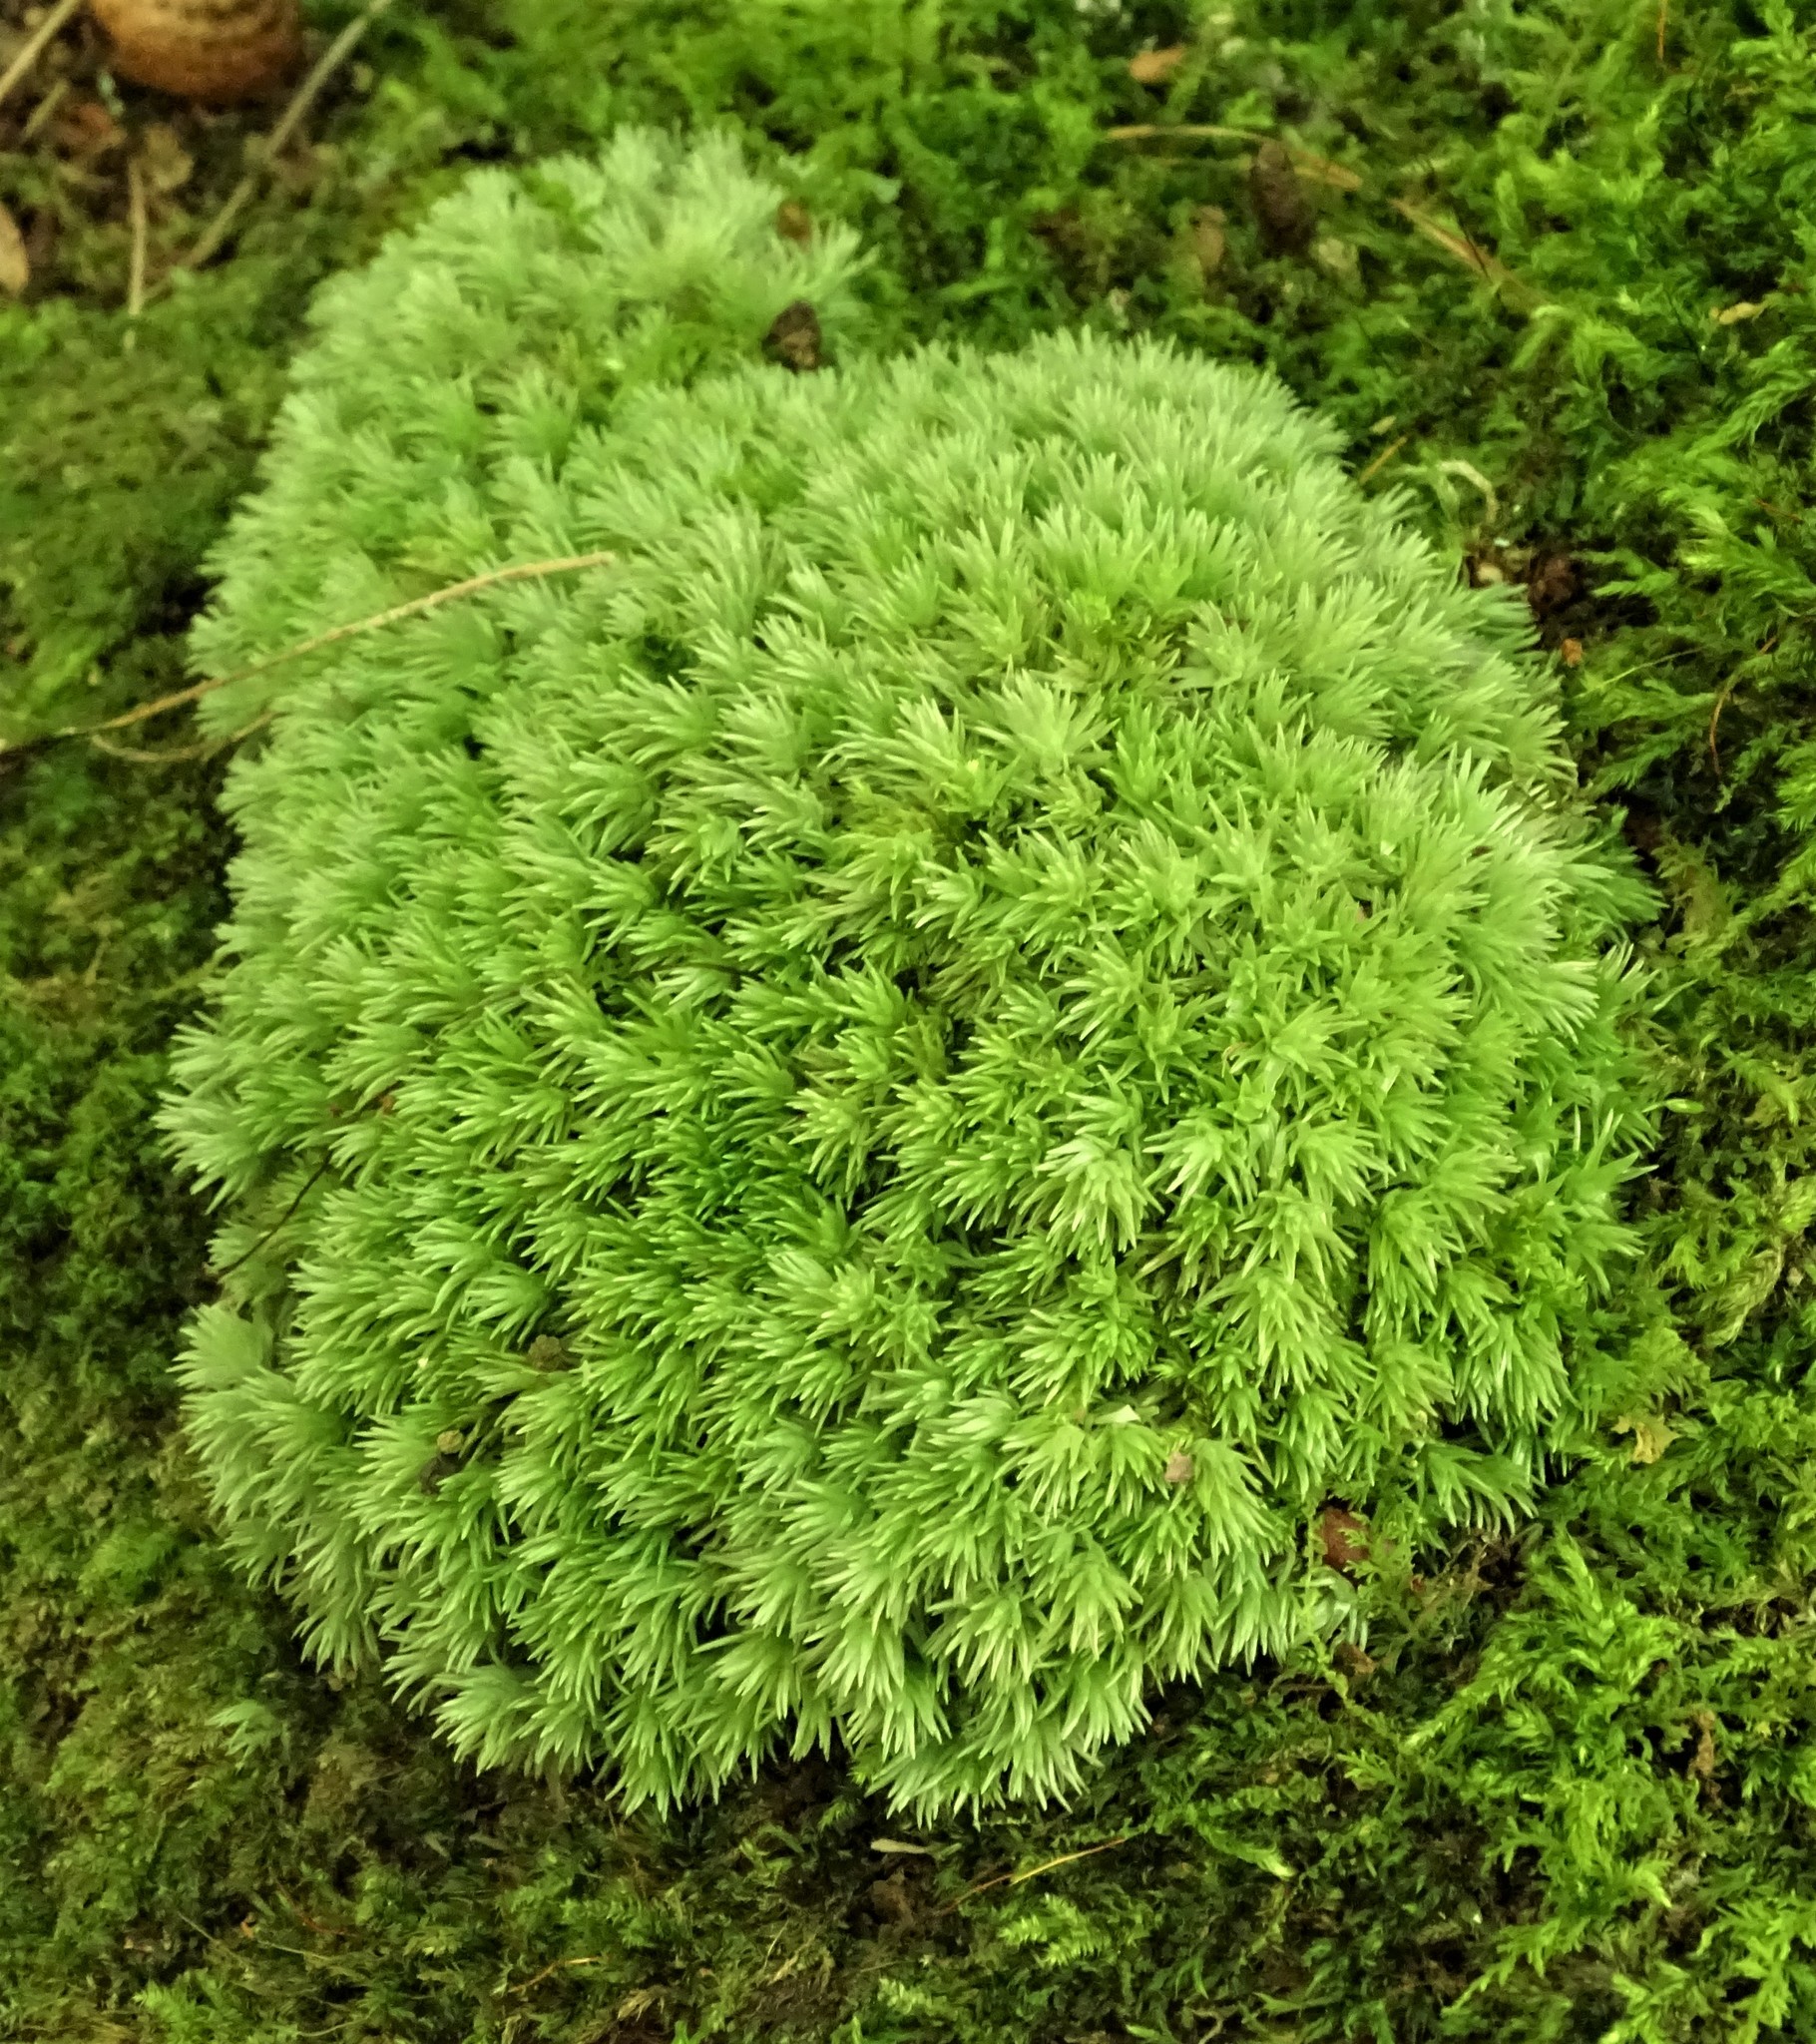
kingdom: Plantae
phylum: Bryophyta
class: Bryopsida
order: Dicranales
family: Leucobryaceae
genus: Leucobryum
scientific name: Leucobryum glaucum
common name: Large white-moss
